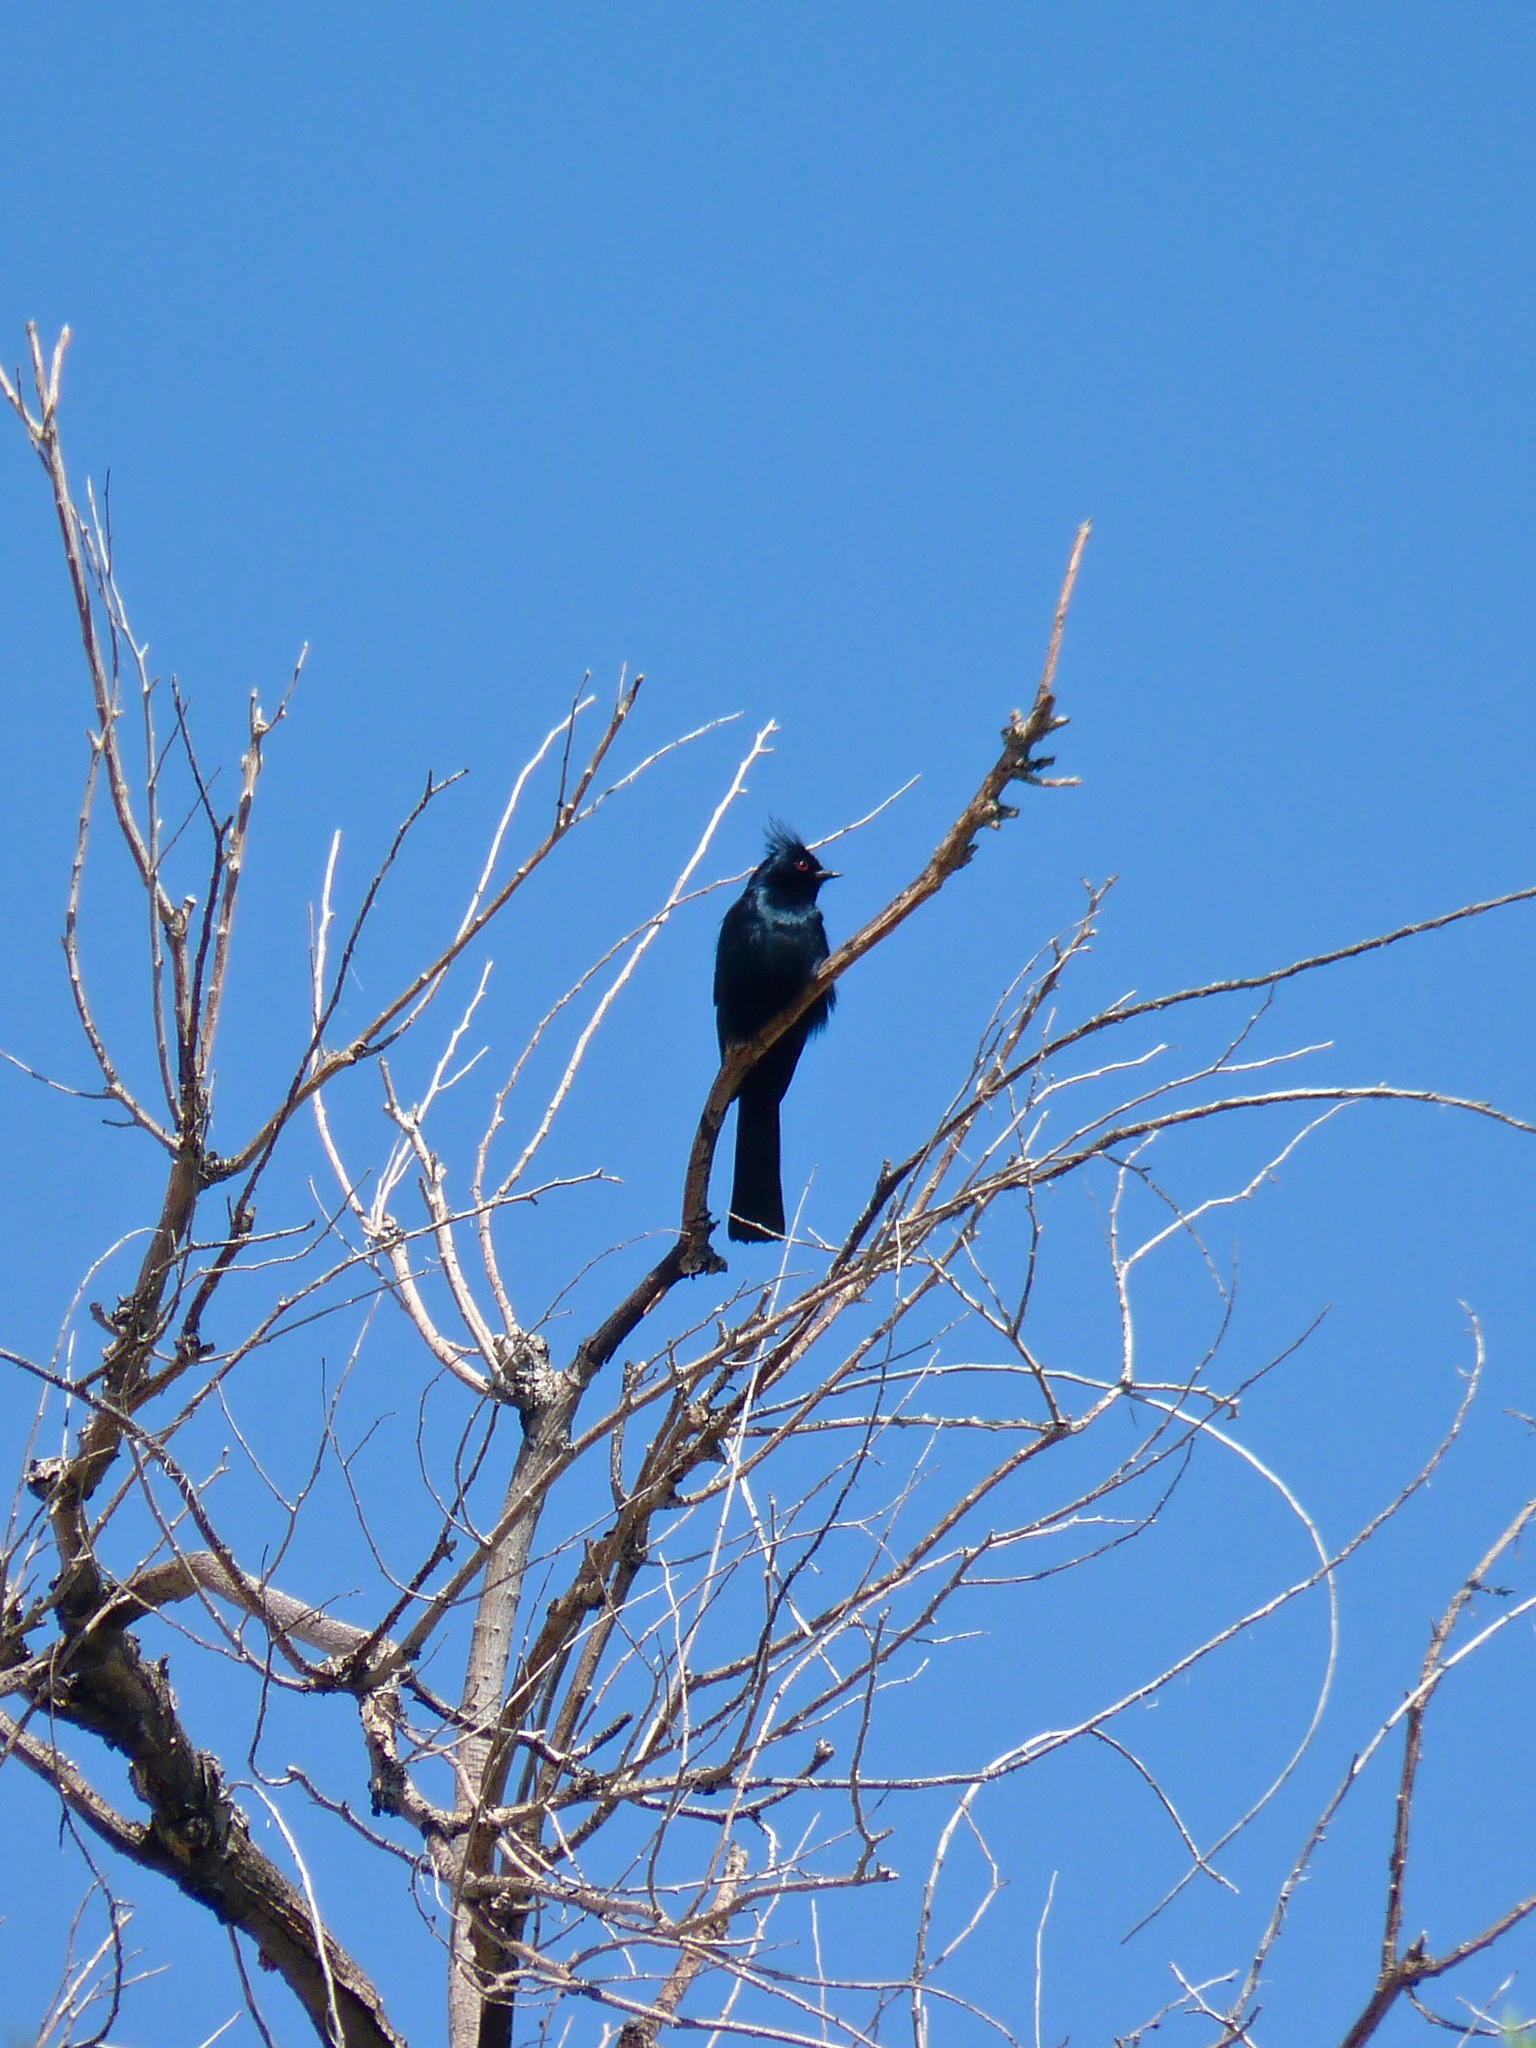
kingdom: Animalia
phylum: Chordata
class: Aves
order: Passeriformes
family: Ptilogonatidae
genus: Phainopepla
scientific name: Phainopepla nitens
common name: Phainopepla
